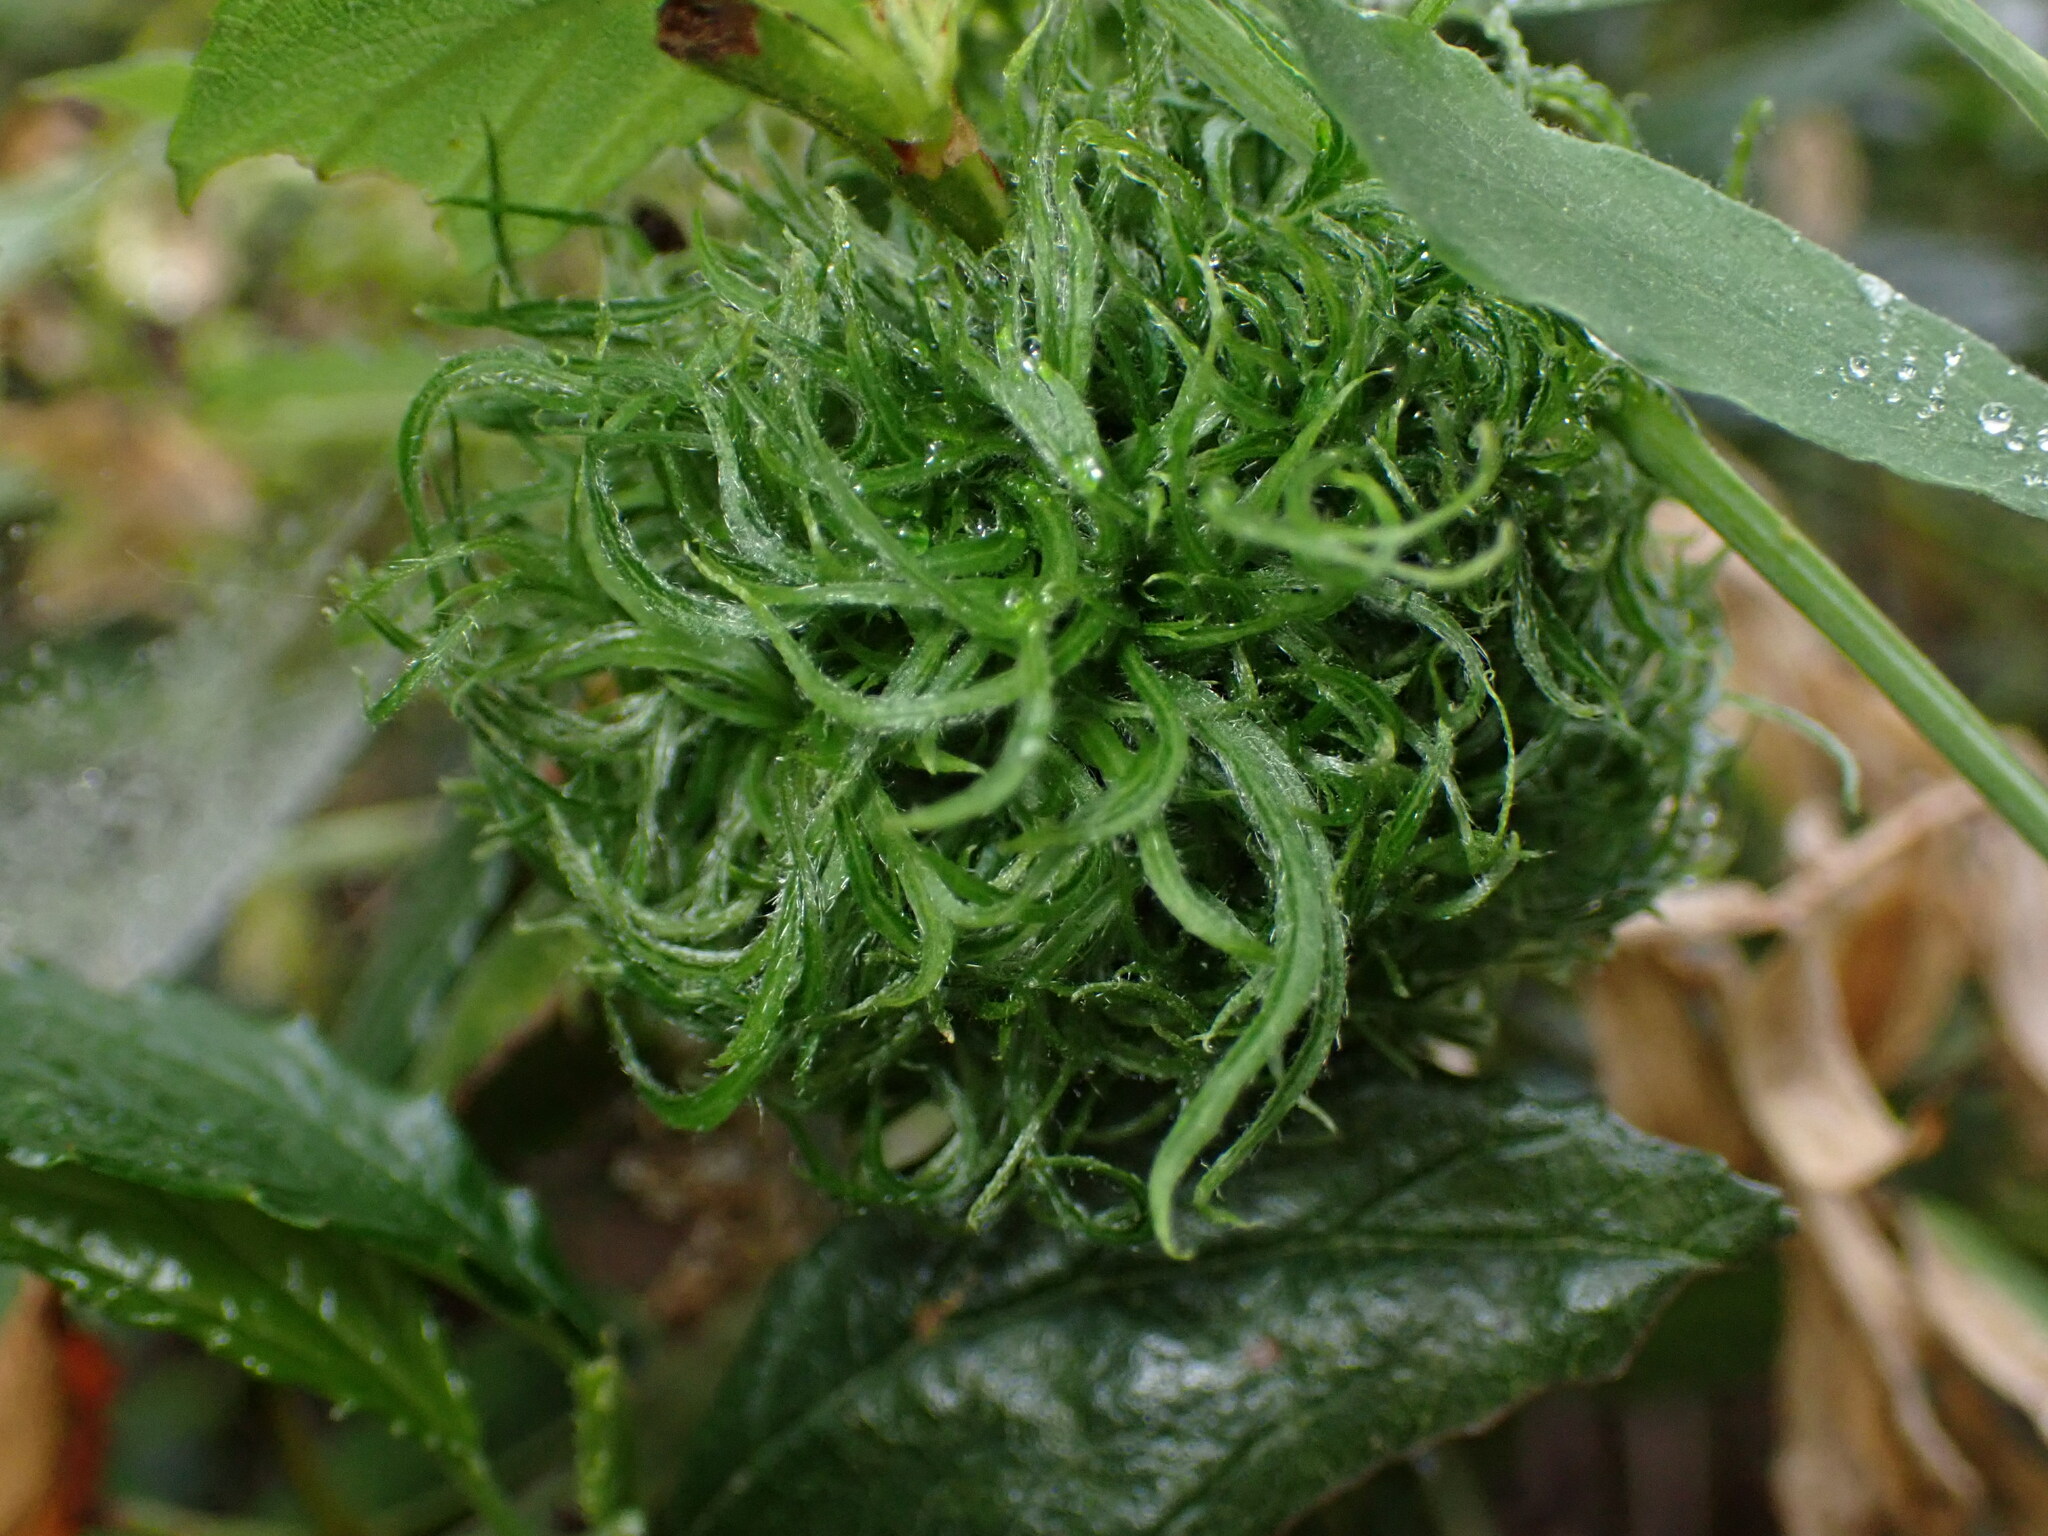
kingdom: Animalia
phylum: Arthropoda
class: Insecta
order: Diptera
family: Cecidomyiidae
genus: Asphondylia
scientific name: Asphondylia ceanothi
